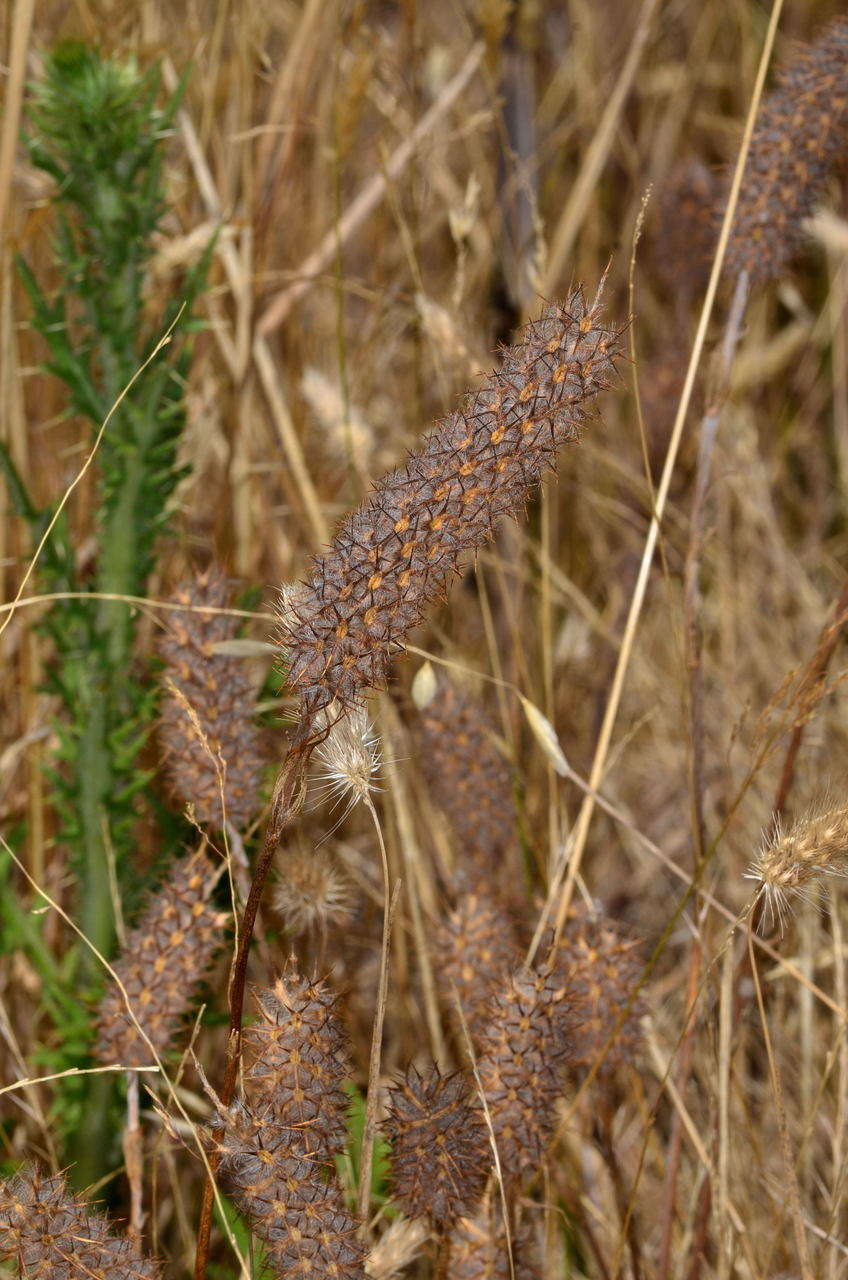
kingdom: Plantae
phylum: Tracheophyta
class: Magnoliopsida
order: Fabales
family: Fabaceae
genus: Trifolium
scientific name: Trifolium angustifolium
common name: Narrow clover
